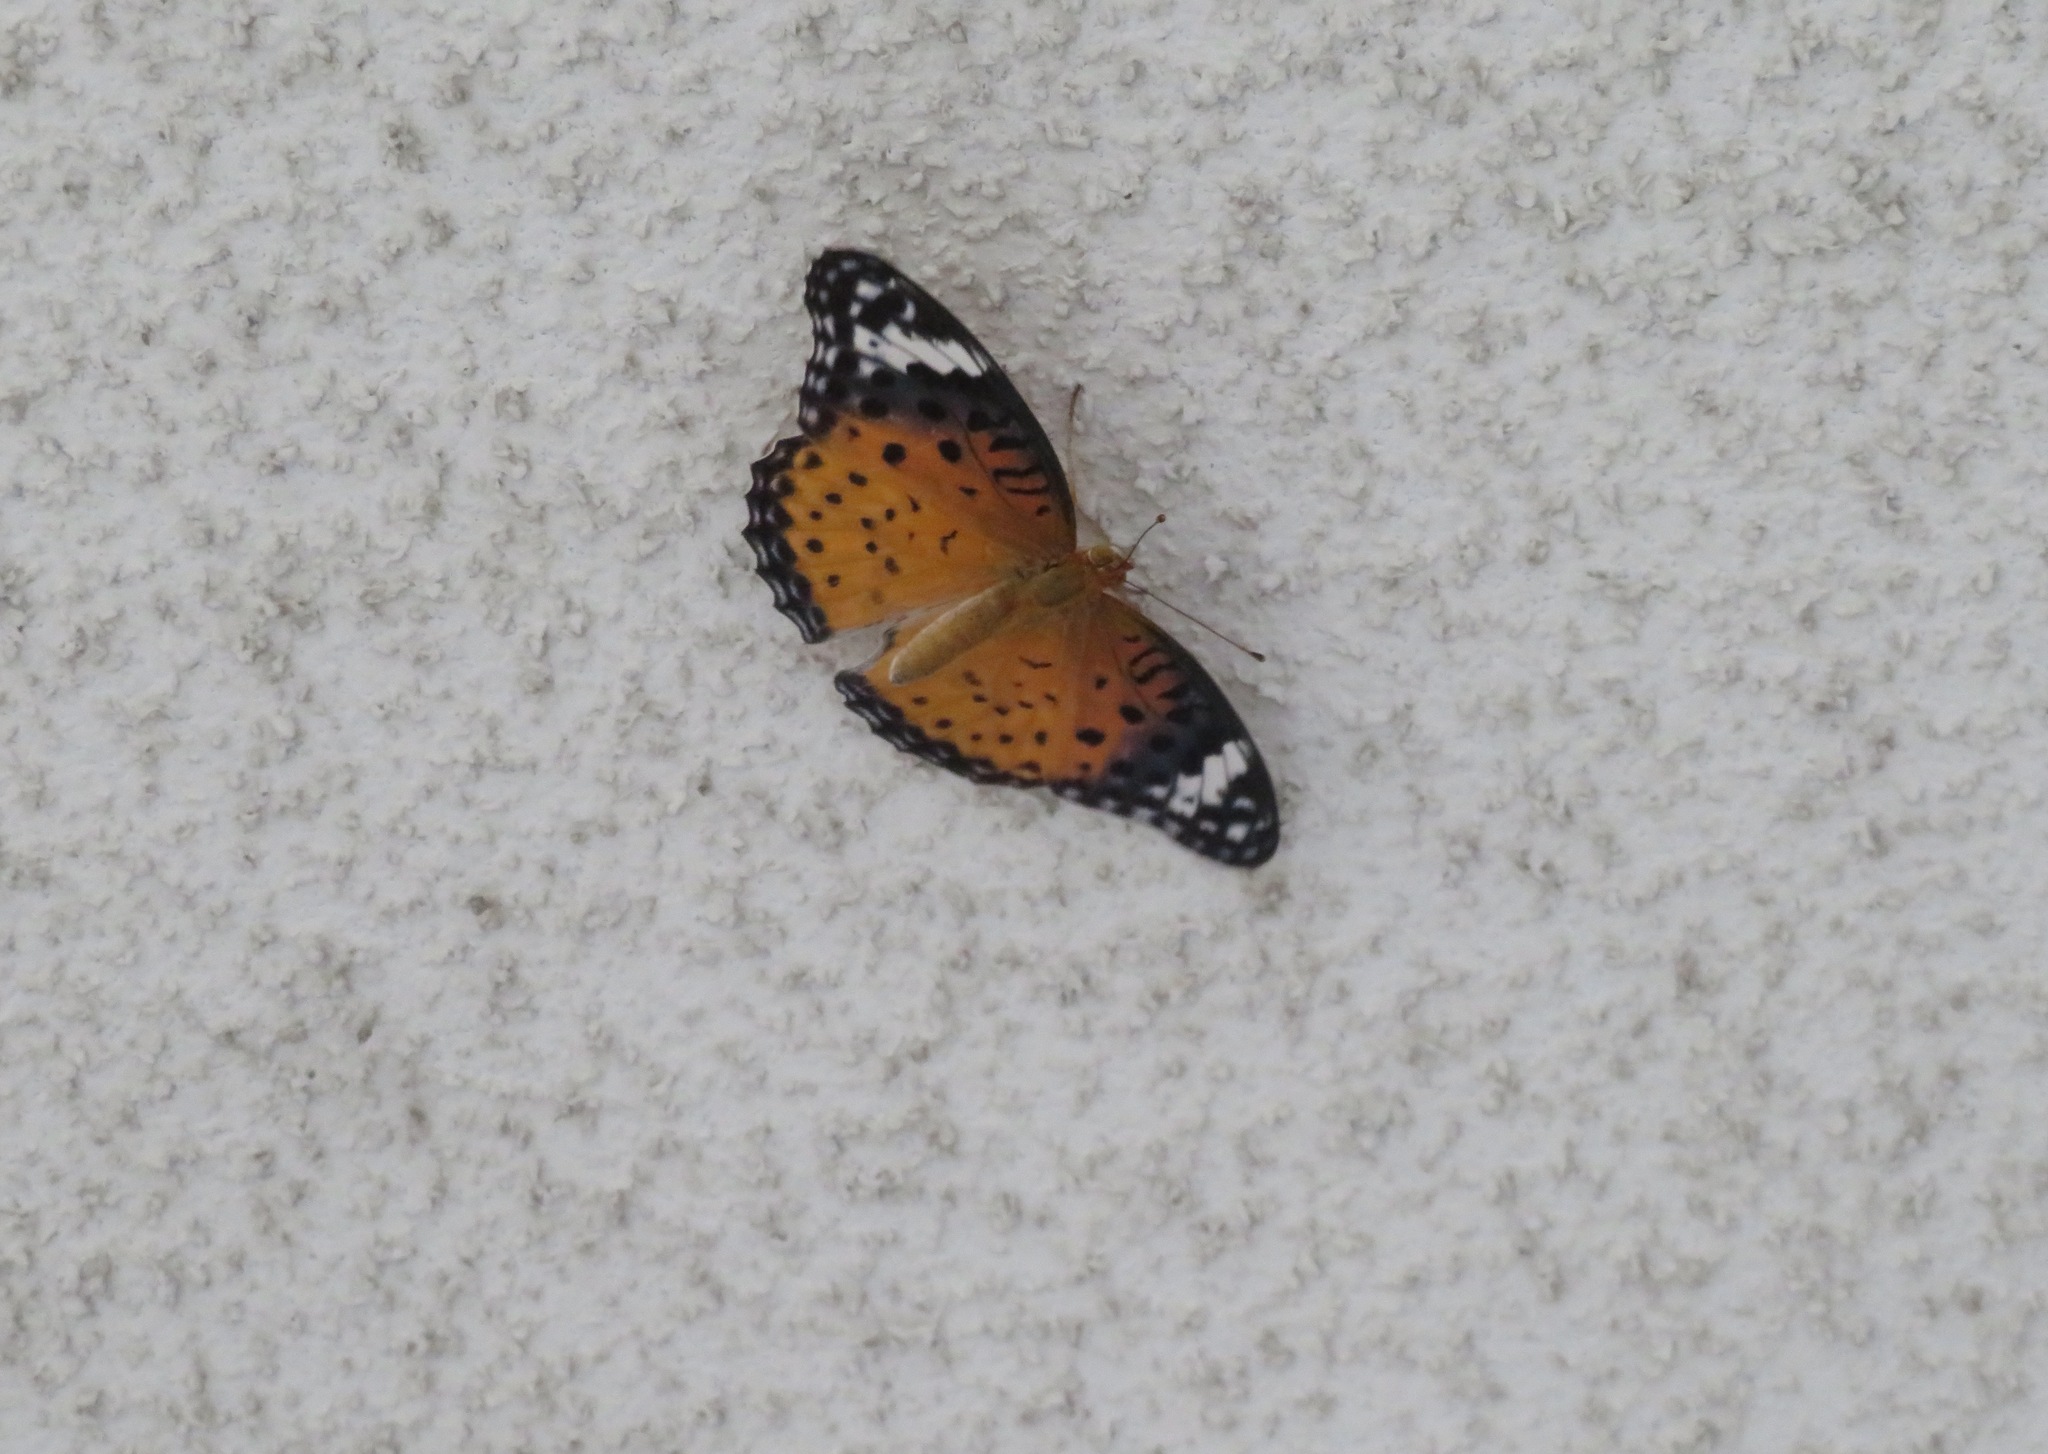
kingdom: Animalia
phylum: Arthropoda
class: Insecta
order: Lepidoptera
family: Nymphalidae
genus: Argynnis
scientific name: Argynnis hyperbius
